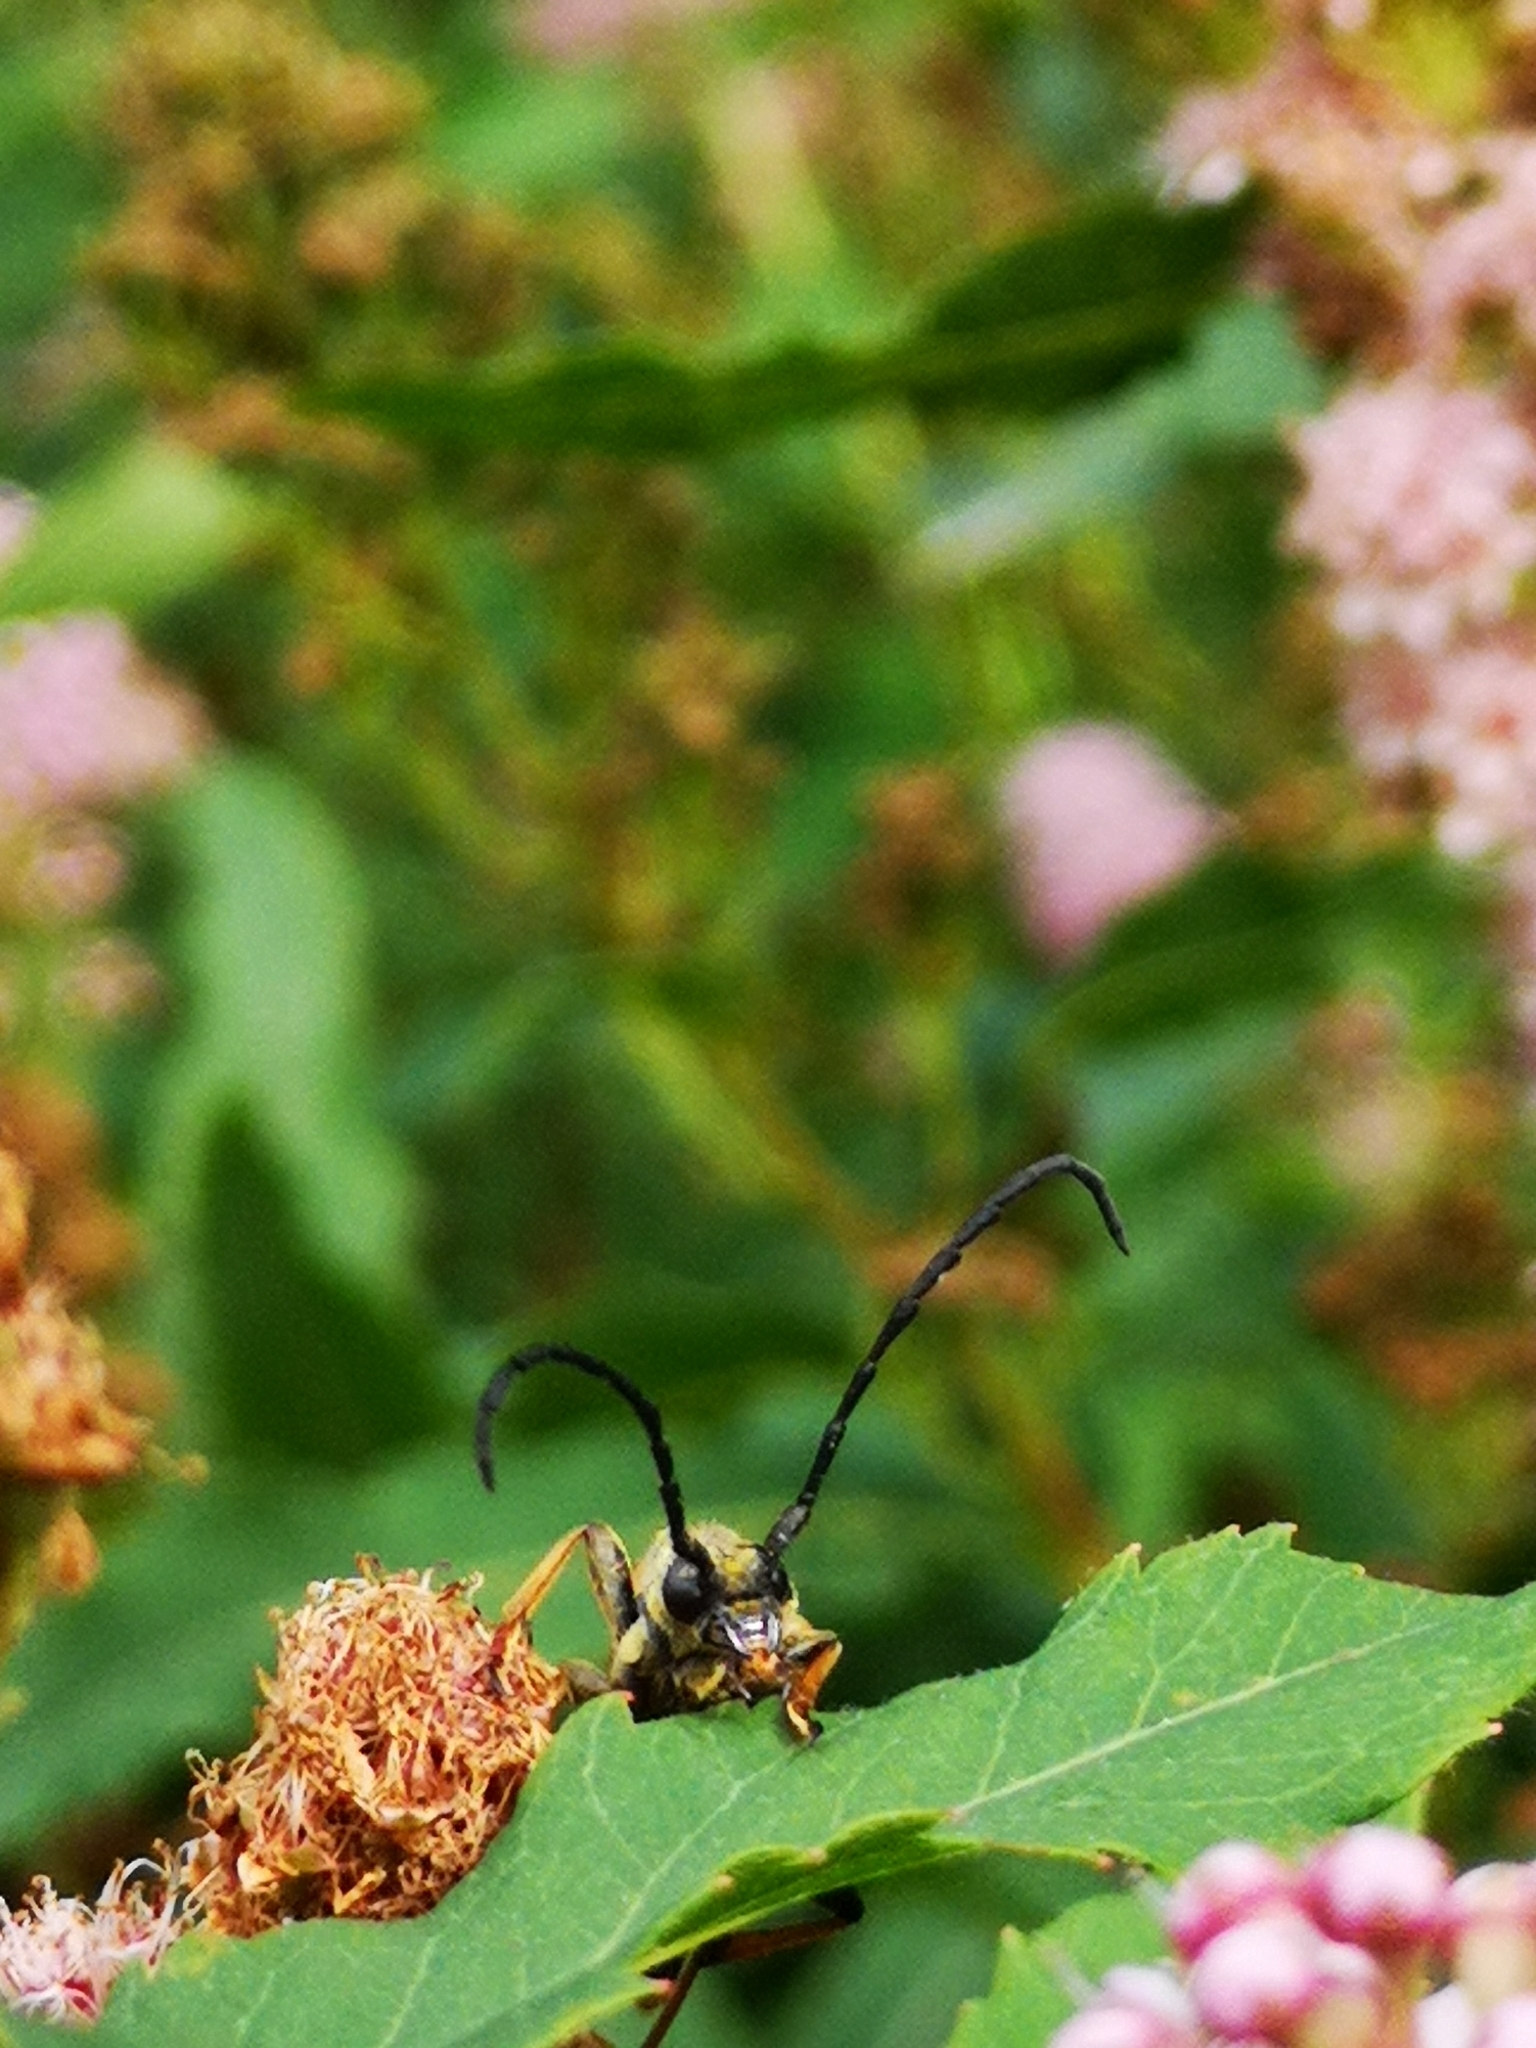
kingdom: Animalia
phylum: Arthropoda
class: Insecta
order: Coleoptera
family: Cerambycidae
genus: Stictoleptura
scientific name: Stictoleptura rubra
